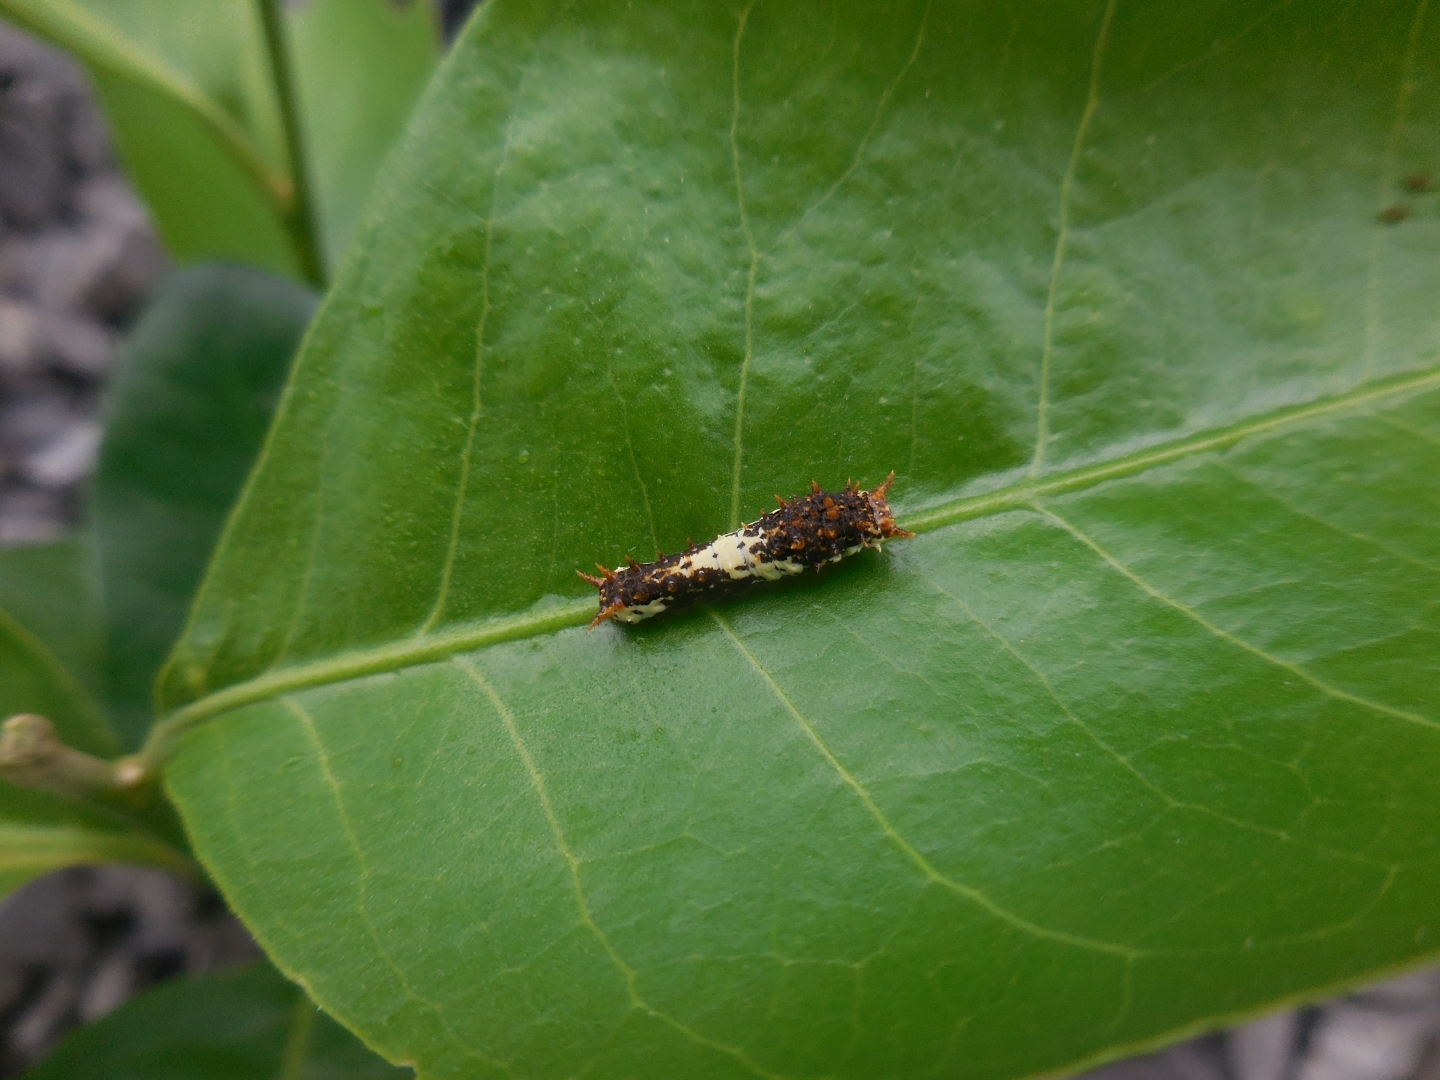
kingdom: Animalia
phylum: Arthropoda
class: Insecta
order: Lepidoptera
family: Papilionidae
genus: Papilio
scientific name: Papilio demoleus
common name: Lime butterfly
